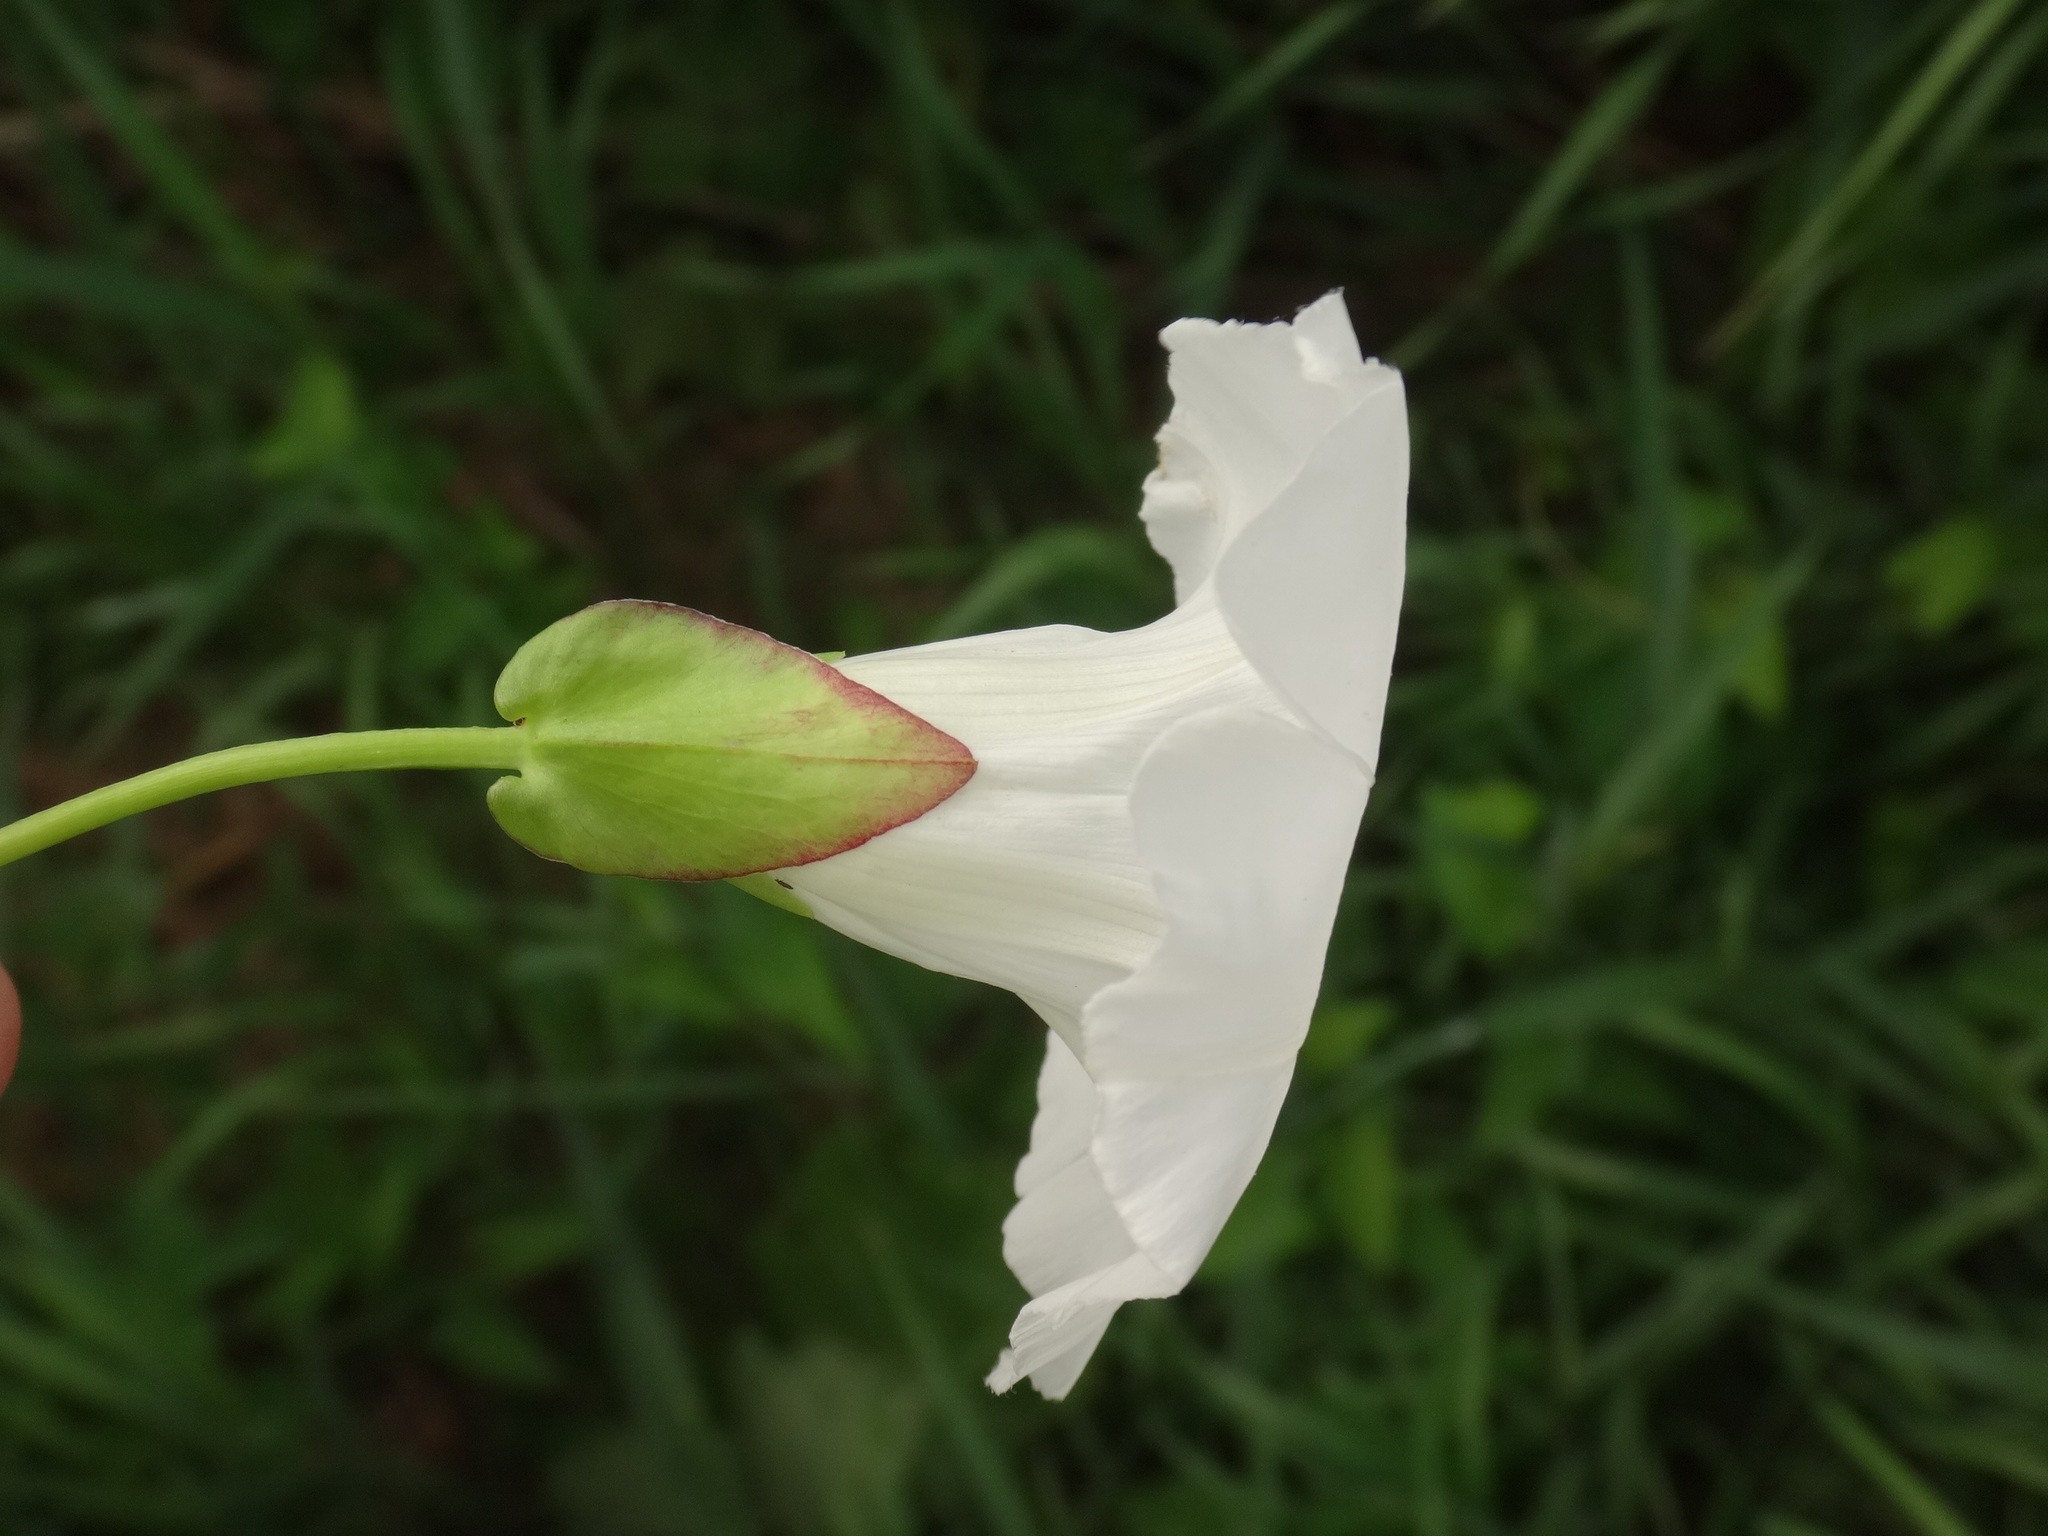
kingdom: Plantae
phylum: Tracheophyta
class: Magnoliopsida
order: Solanales
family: Convolvulaceae
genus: Calystegia
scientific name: Calystegia sepium
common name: Hedge bindweed
